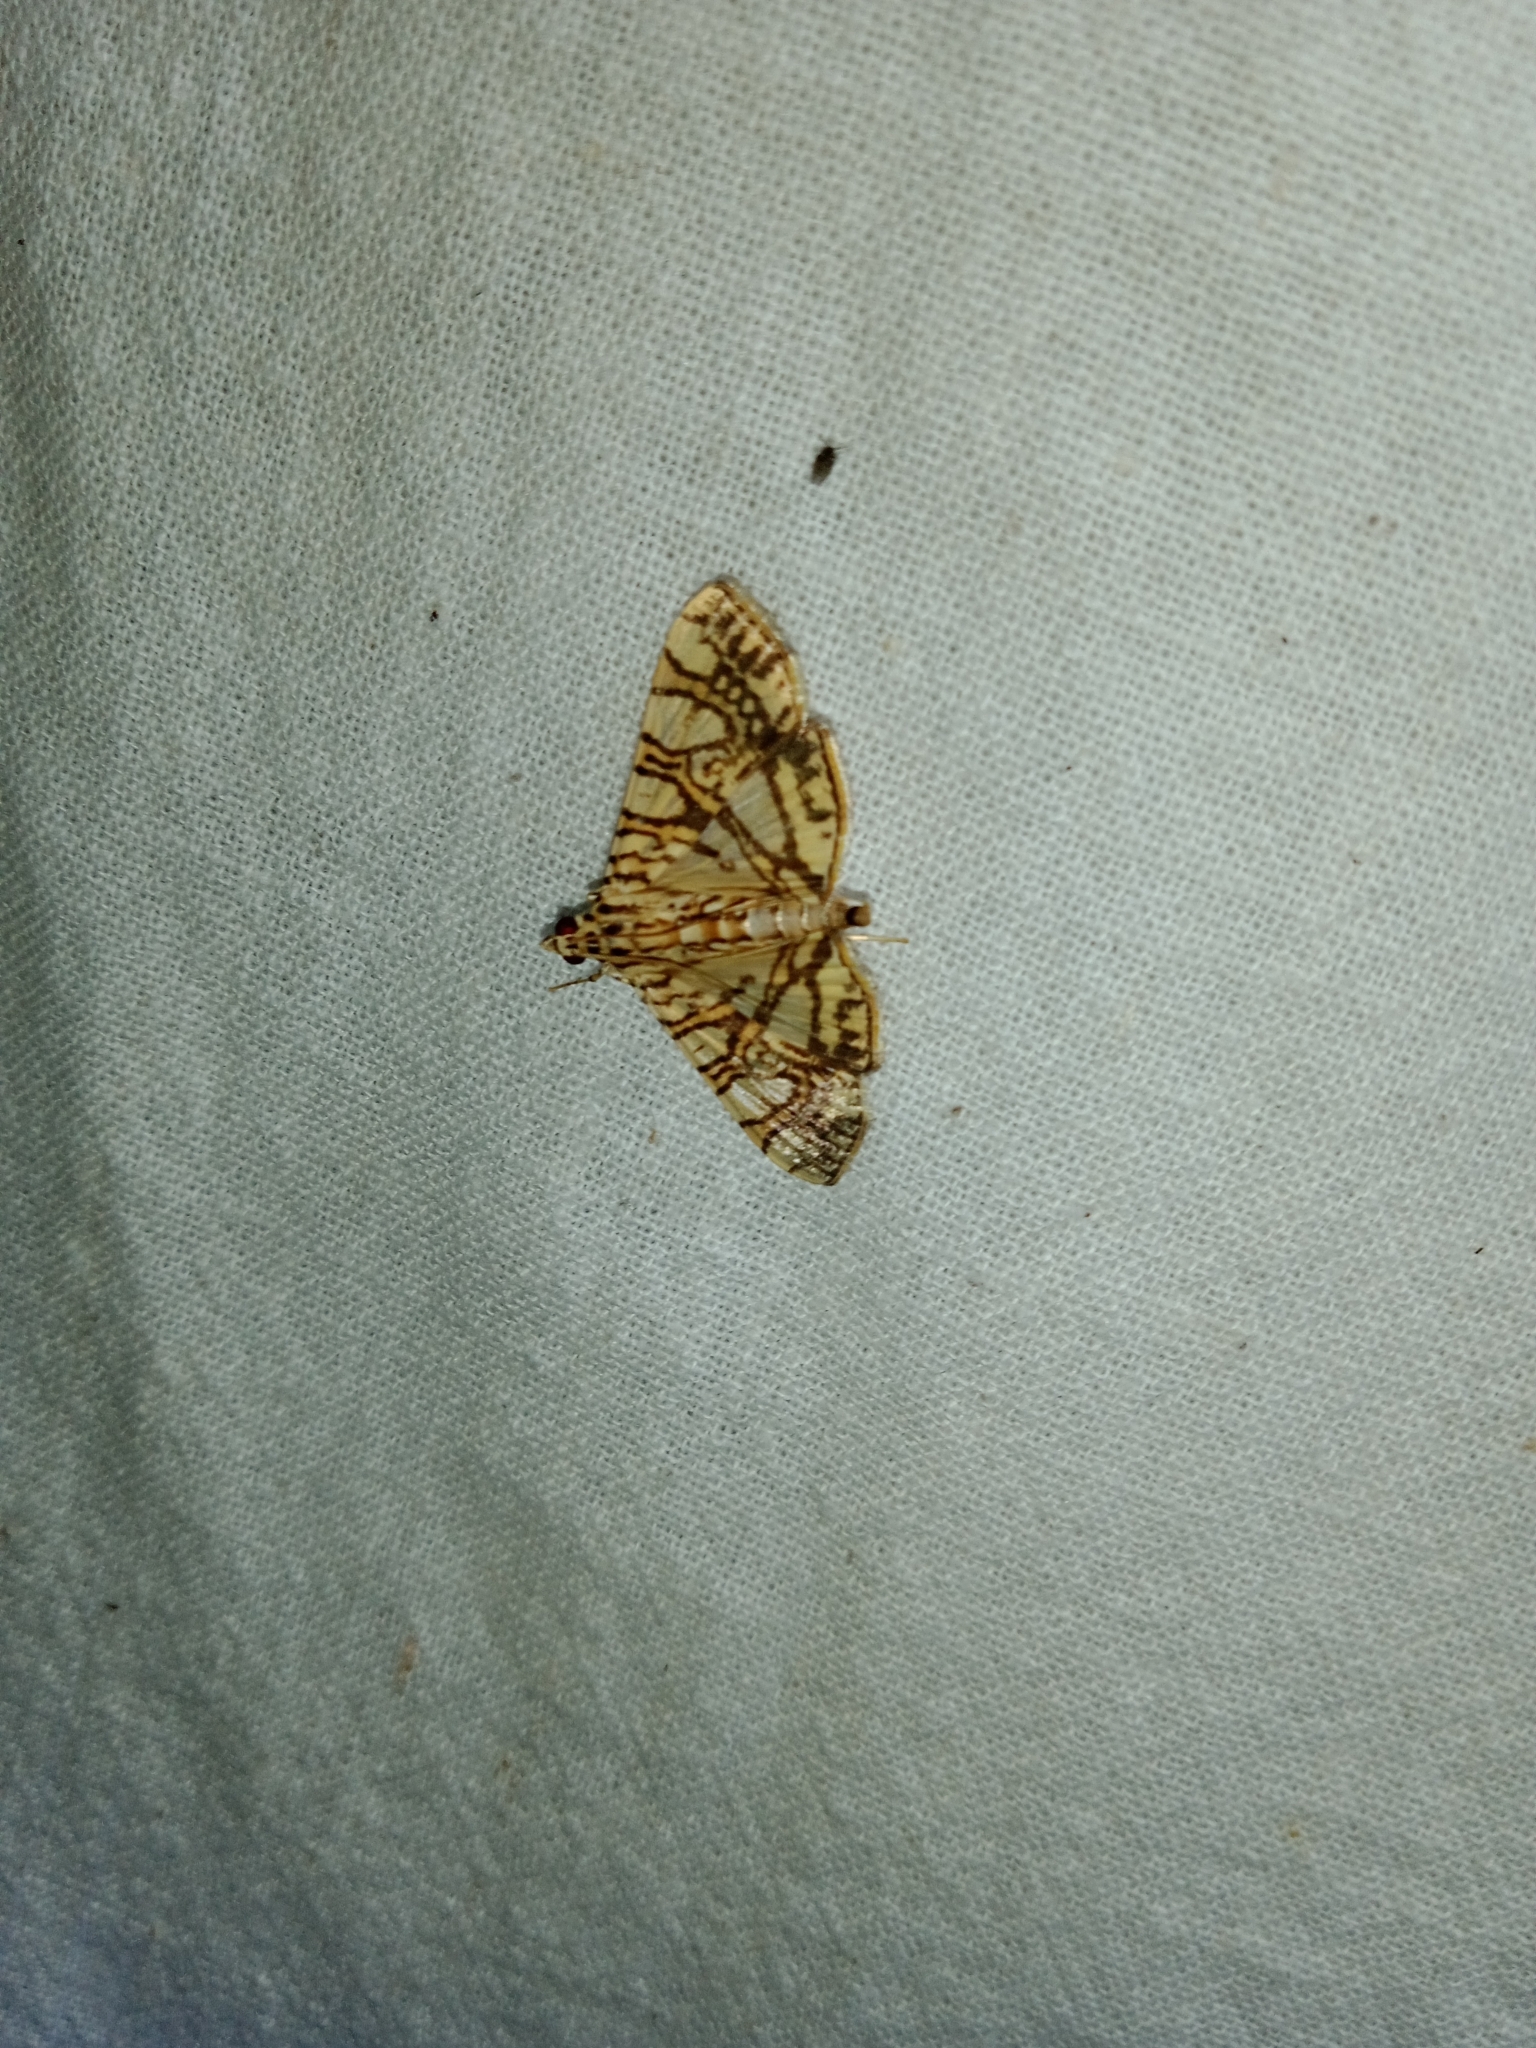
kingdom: Animalia
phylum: Arthropoda
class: Insecta
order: Lepidoptera
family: Crambidae
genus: Glyphodes
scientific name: Glyphodes caesalis
